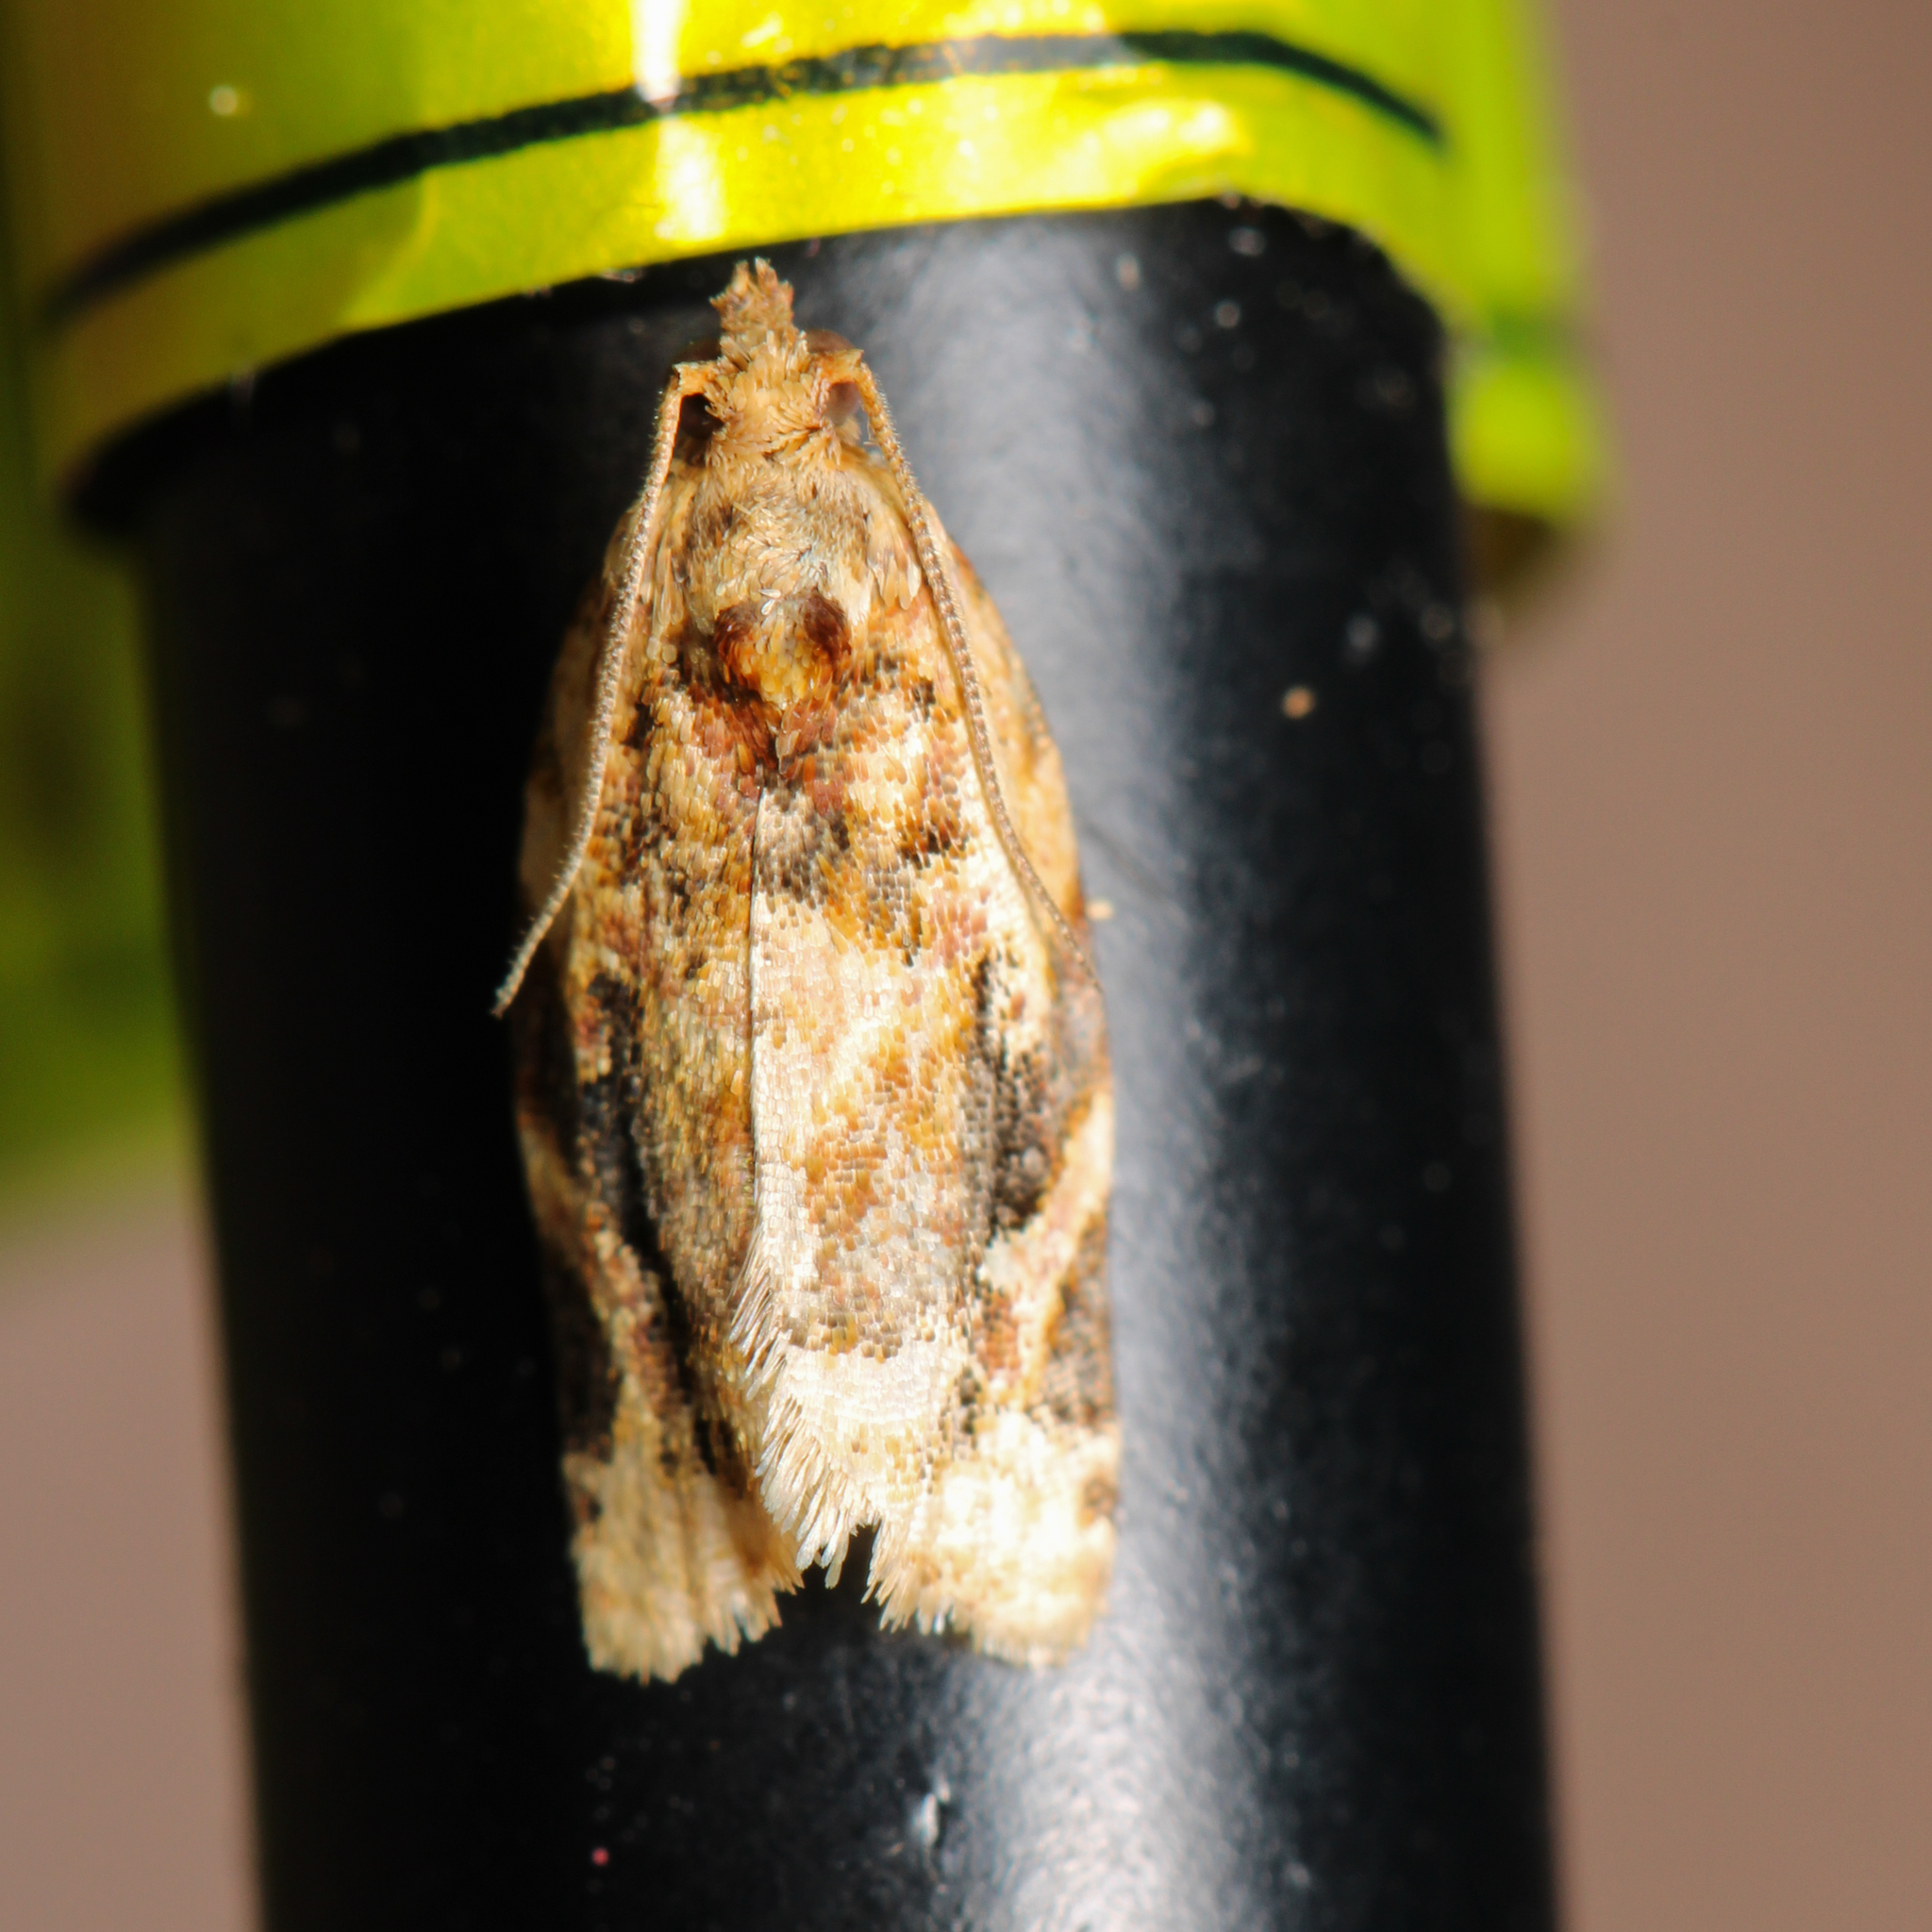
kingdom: Animalia
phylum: Arthropoda
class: Insecta
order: Lepidoptera
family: Tortricidae
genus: Argyrotaenia
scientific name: Argyrotaenia velutinana
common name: Red-banded leafroller moth
